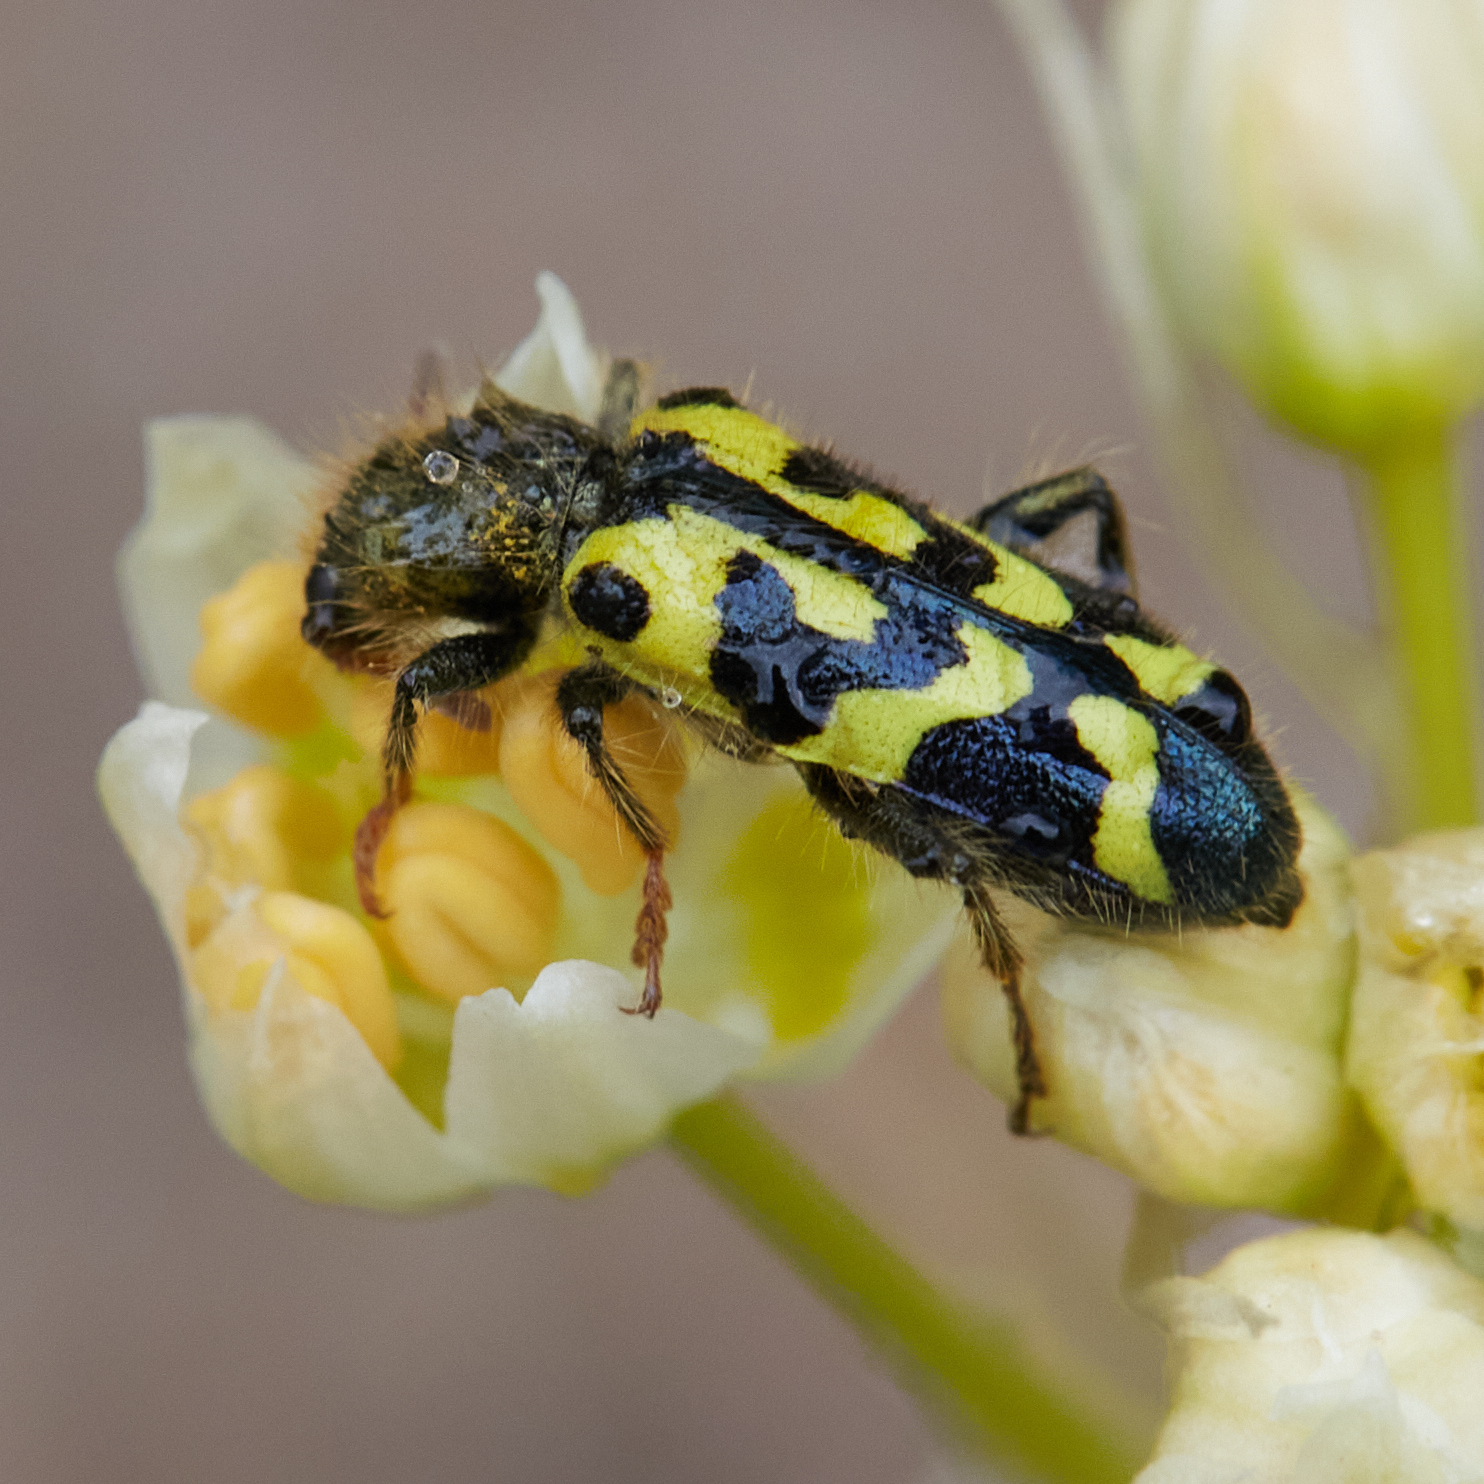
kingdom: Animalia
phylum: Arthropoda
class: Insecta
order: Coleoptera
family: Cleridae
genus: Trichodes
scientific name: Trichodes ornatus
